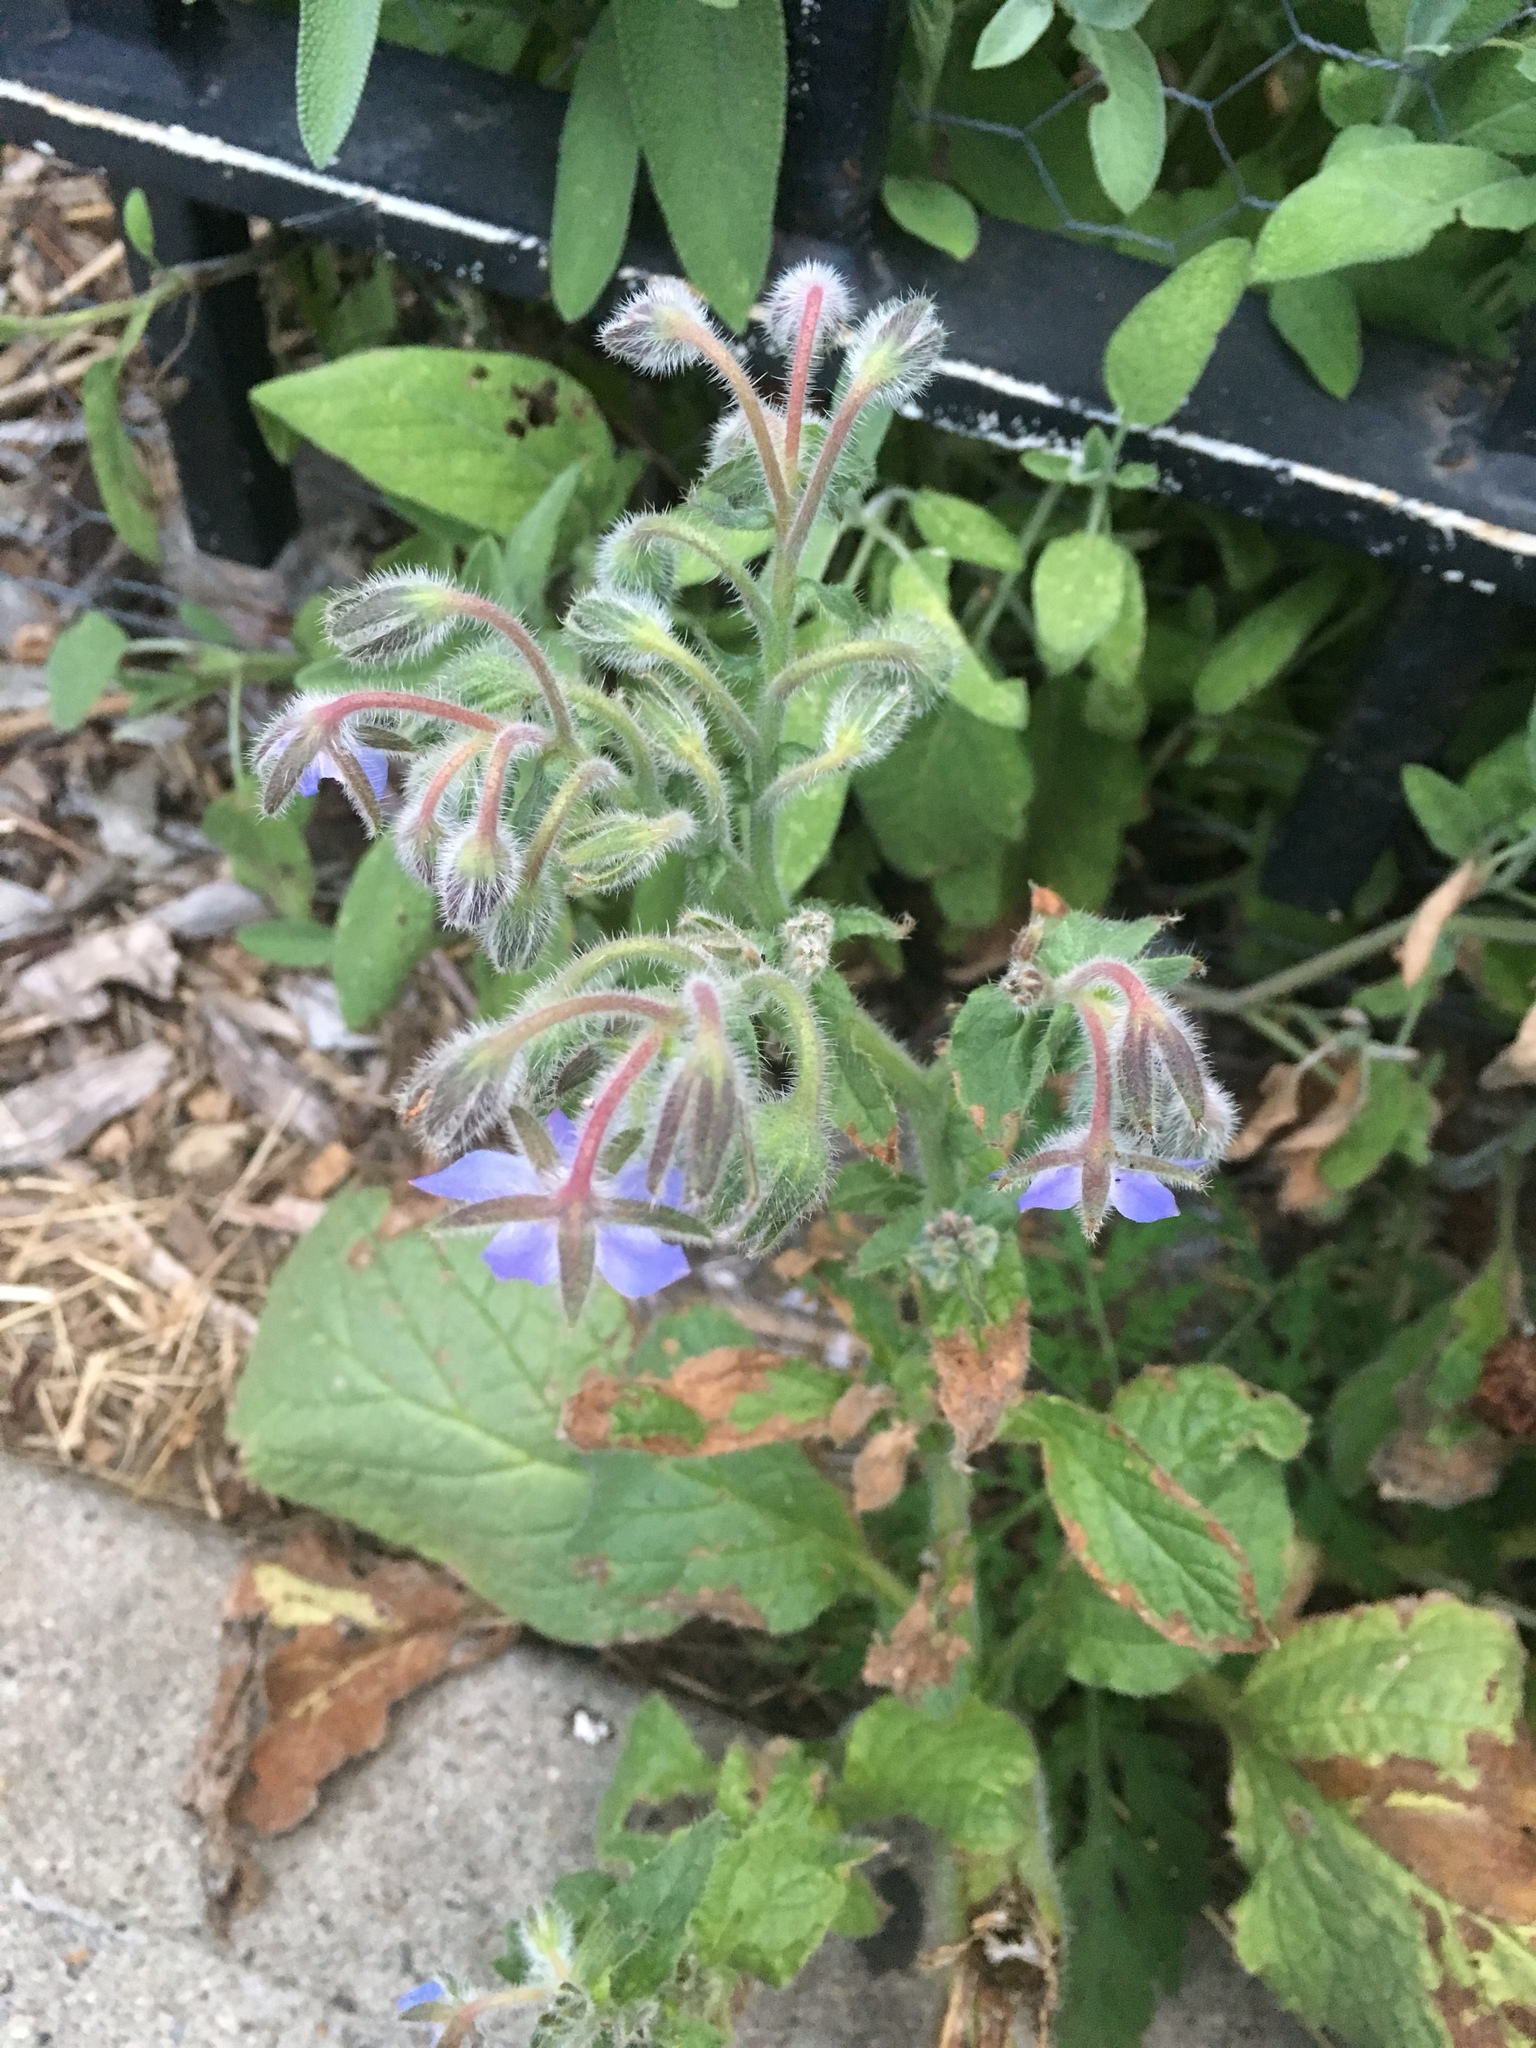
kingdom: Plantae
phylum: Tracheophyta
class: Magnoliopsida
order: Boraginales
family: Boraginaceae
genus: Borago
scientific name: Borago officinalis
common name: Borage
